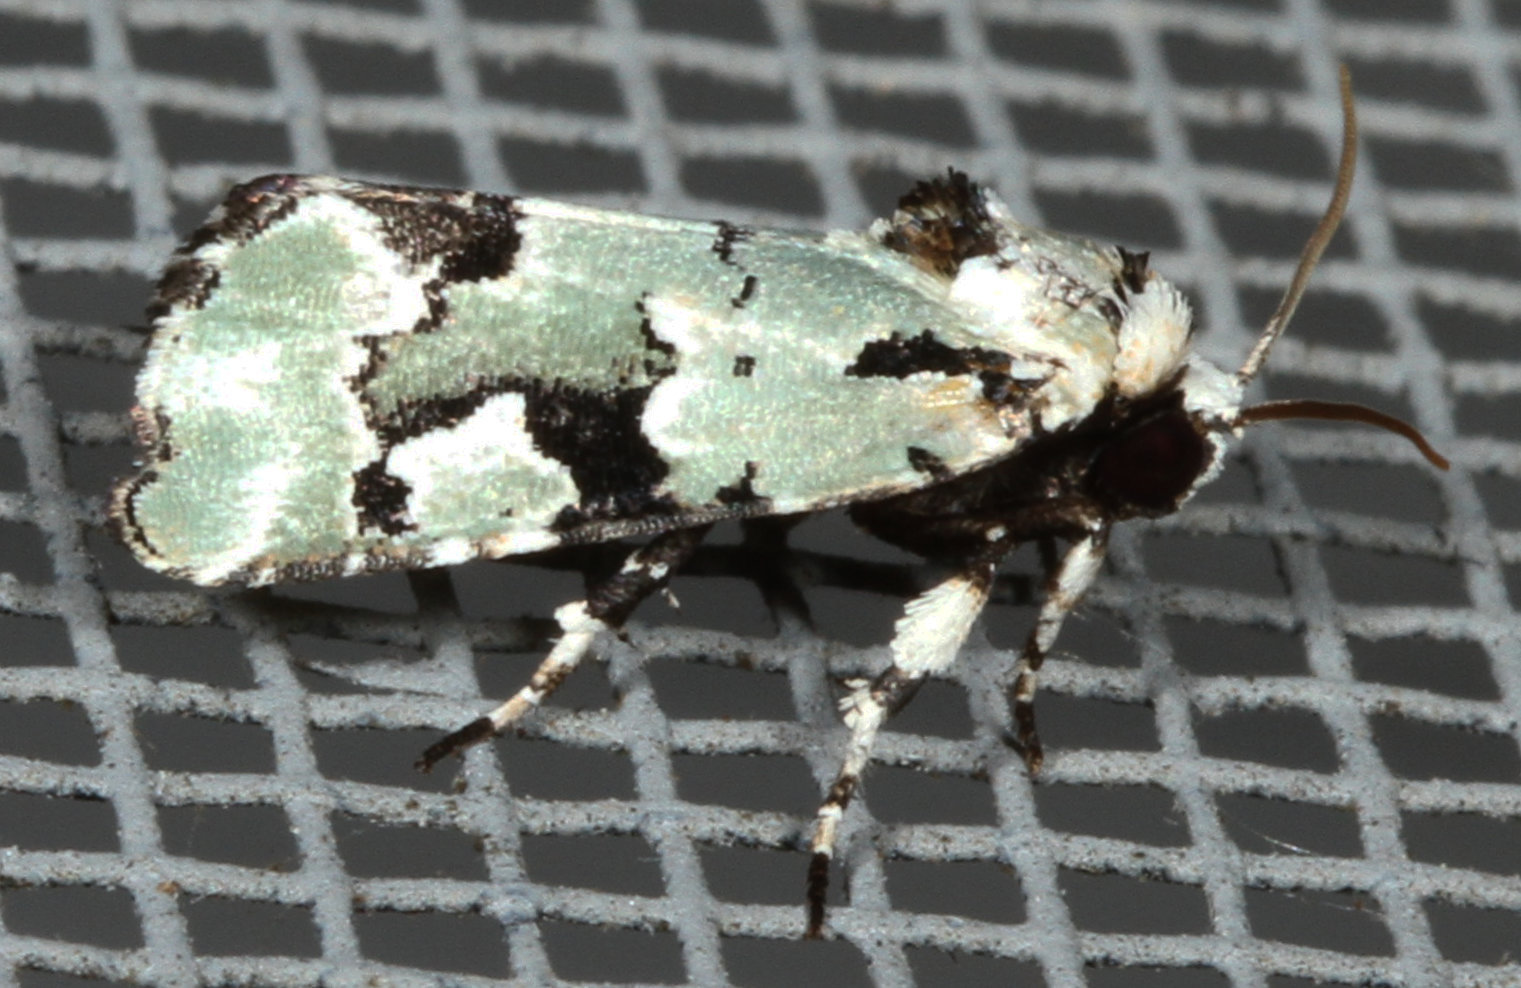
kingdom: Animalia
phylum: Arthropoda
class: Insecta
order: Lepidoptera
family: Noctuidae
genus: Emarginea
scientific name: Emarginea percara
